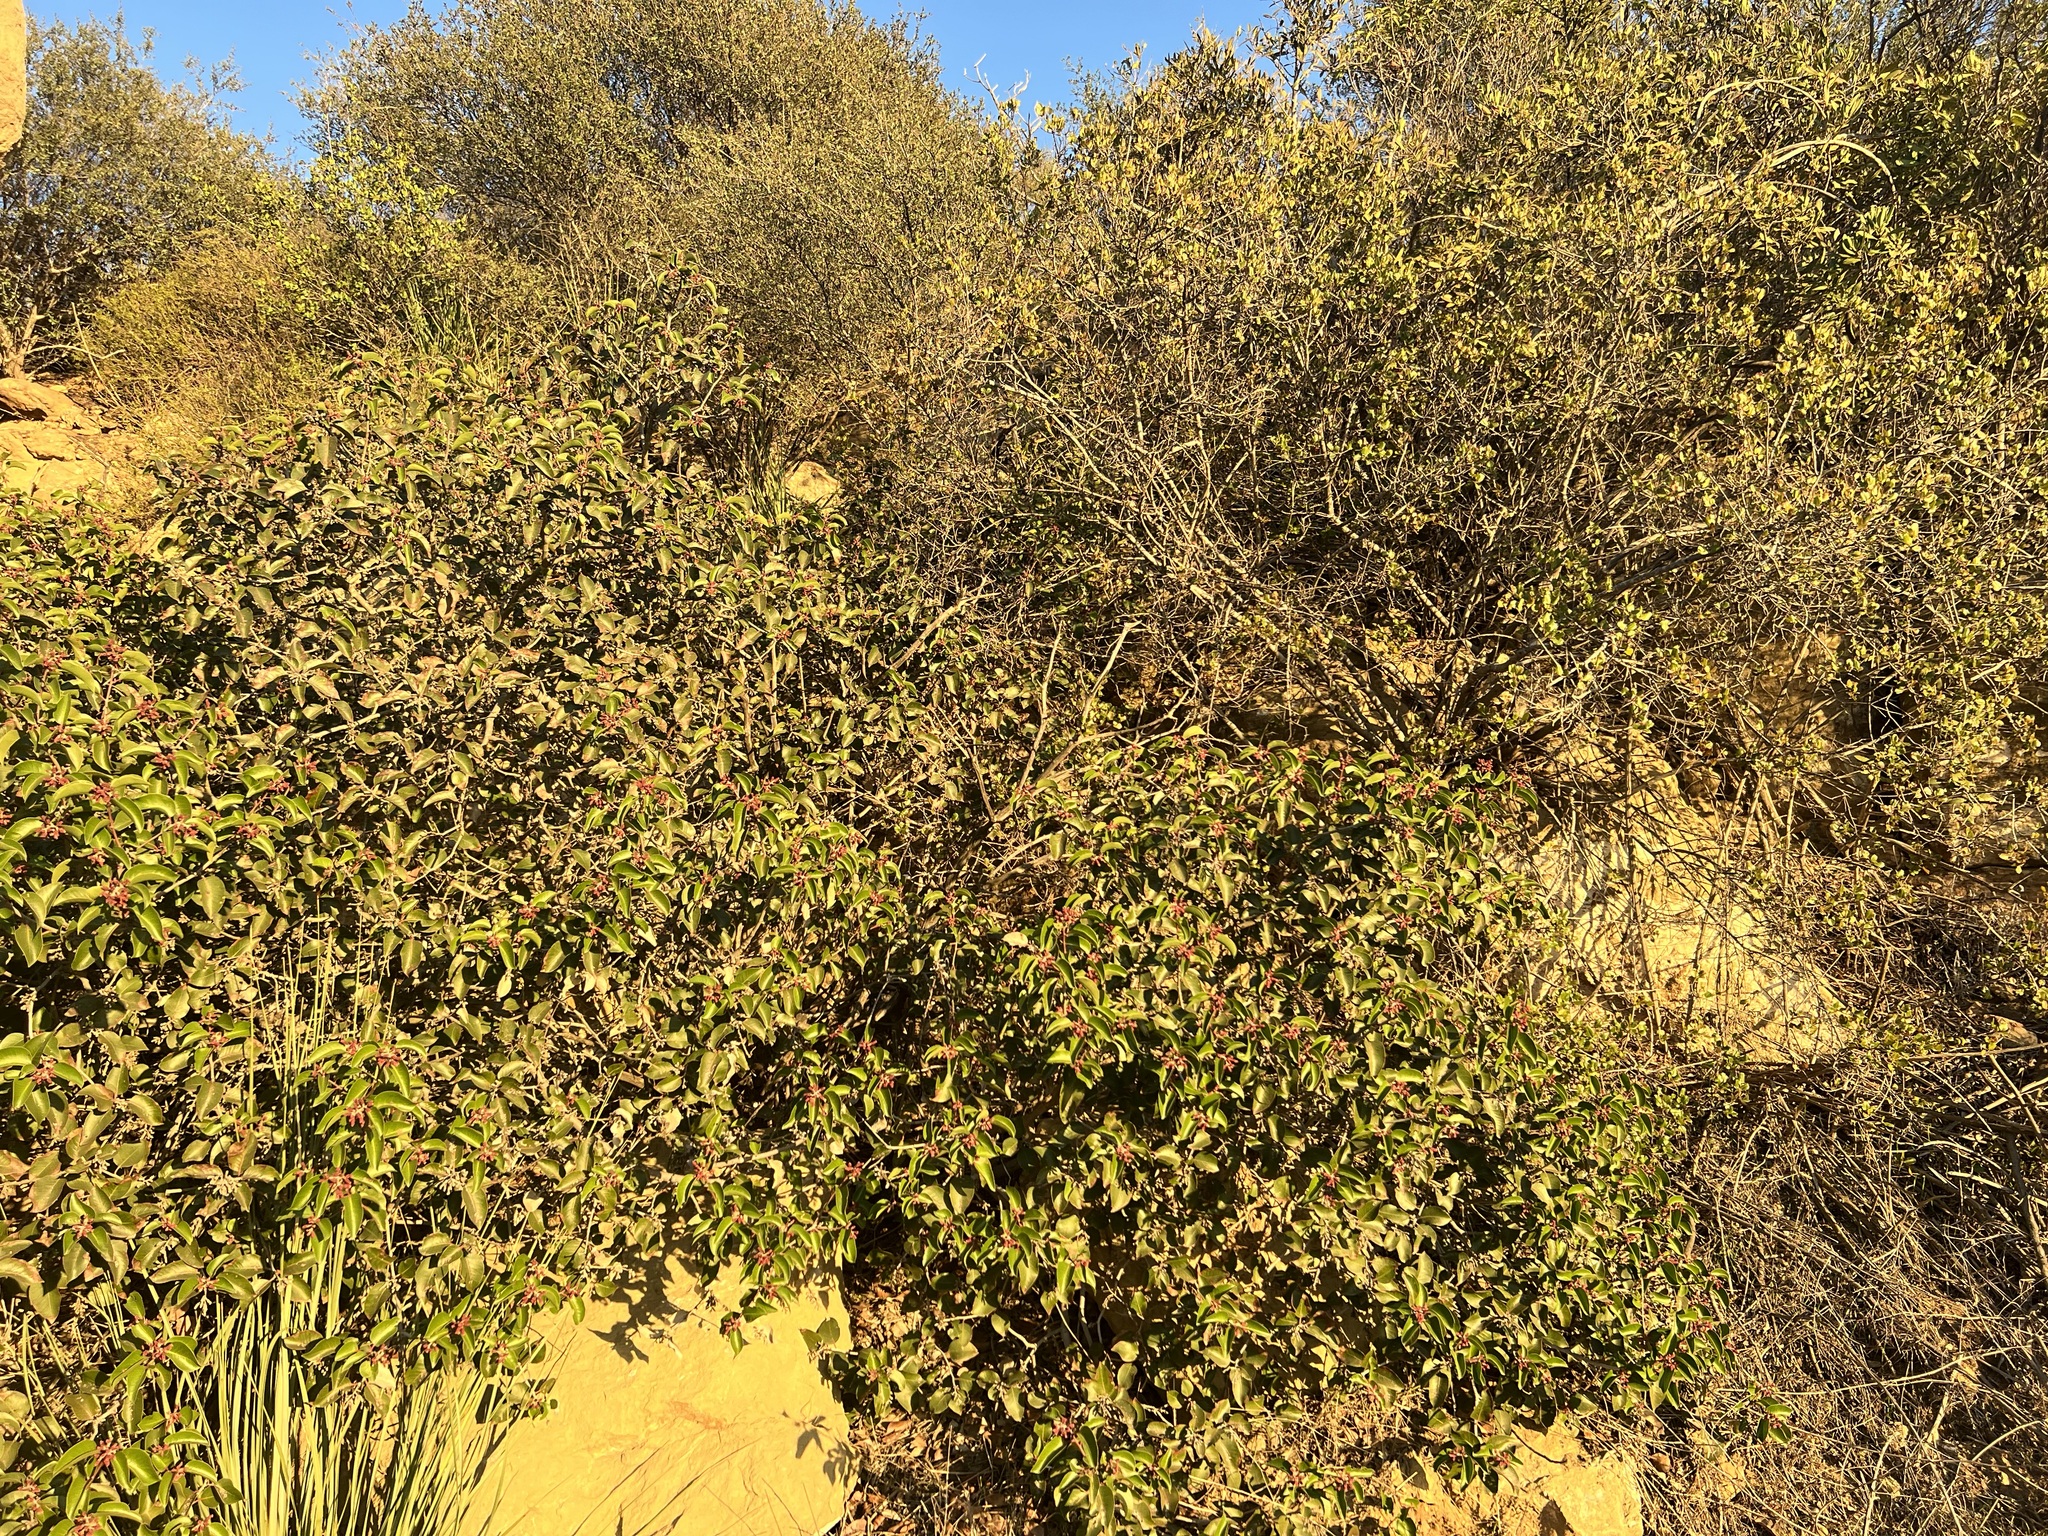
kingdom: Plantae
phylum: Tracheophyta
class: Magnoliopsida
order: Sapindales
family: Anacardiaceae
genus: Rhus
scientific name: Rhus ovata
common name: Sugar sumac
